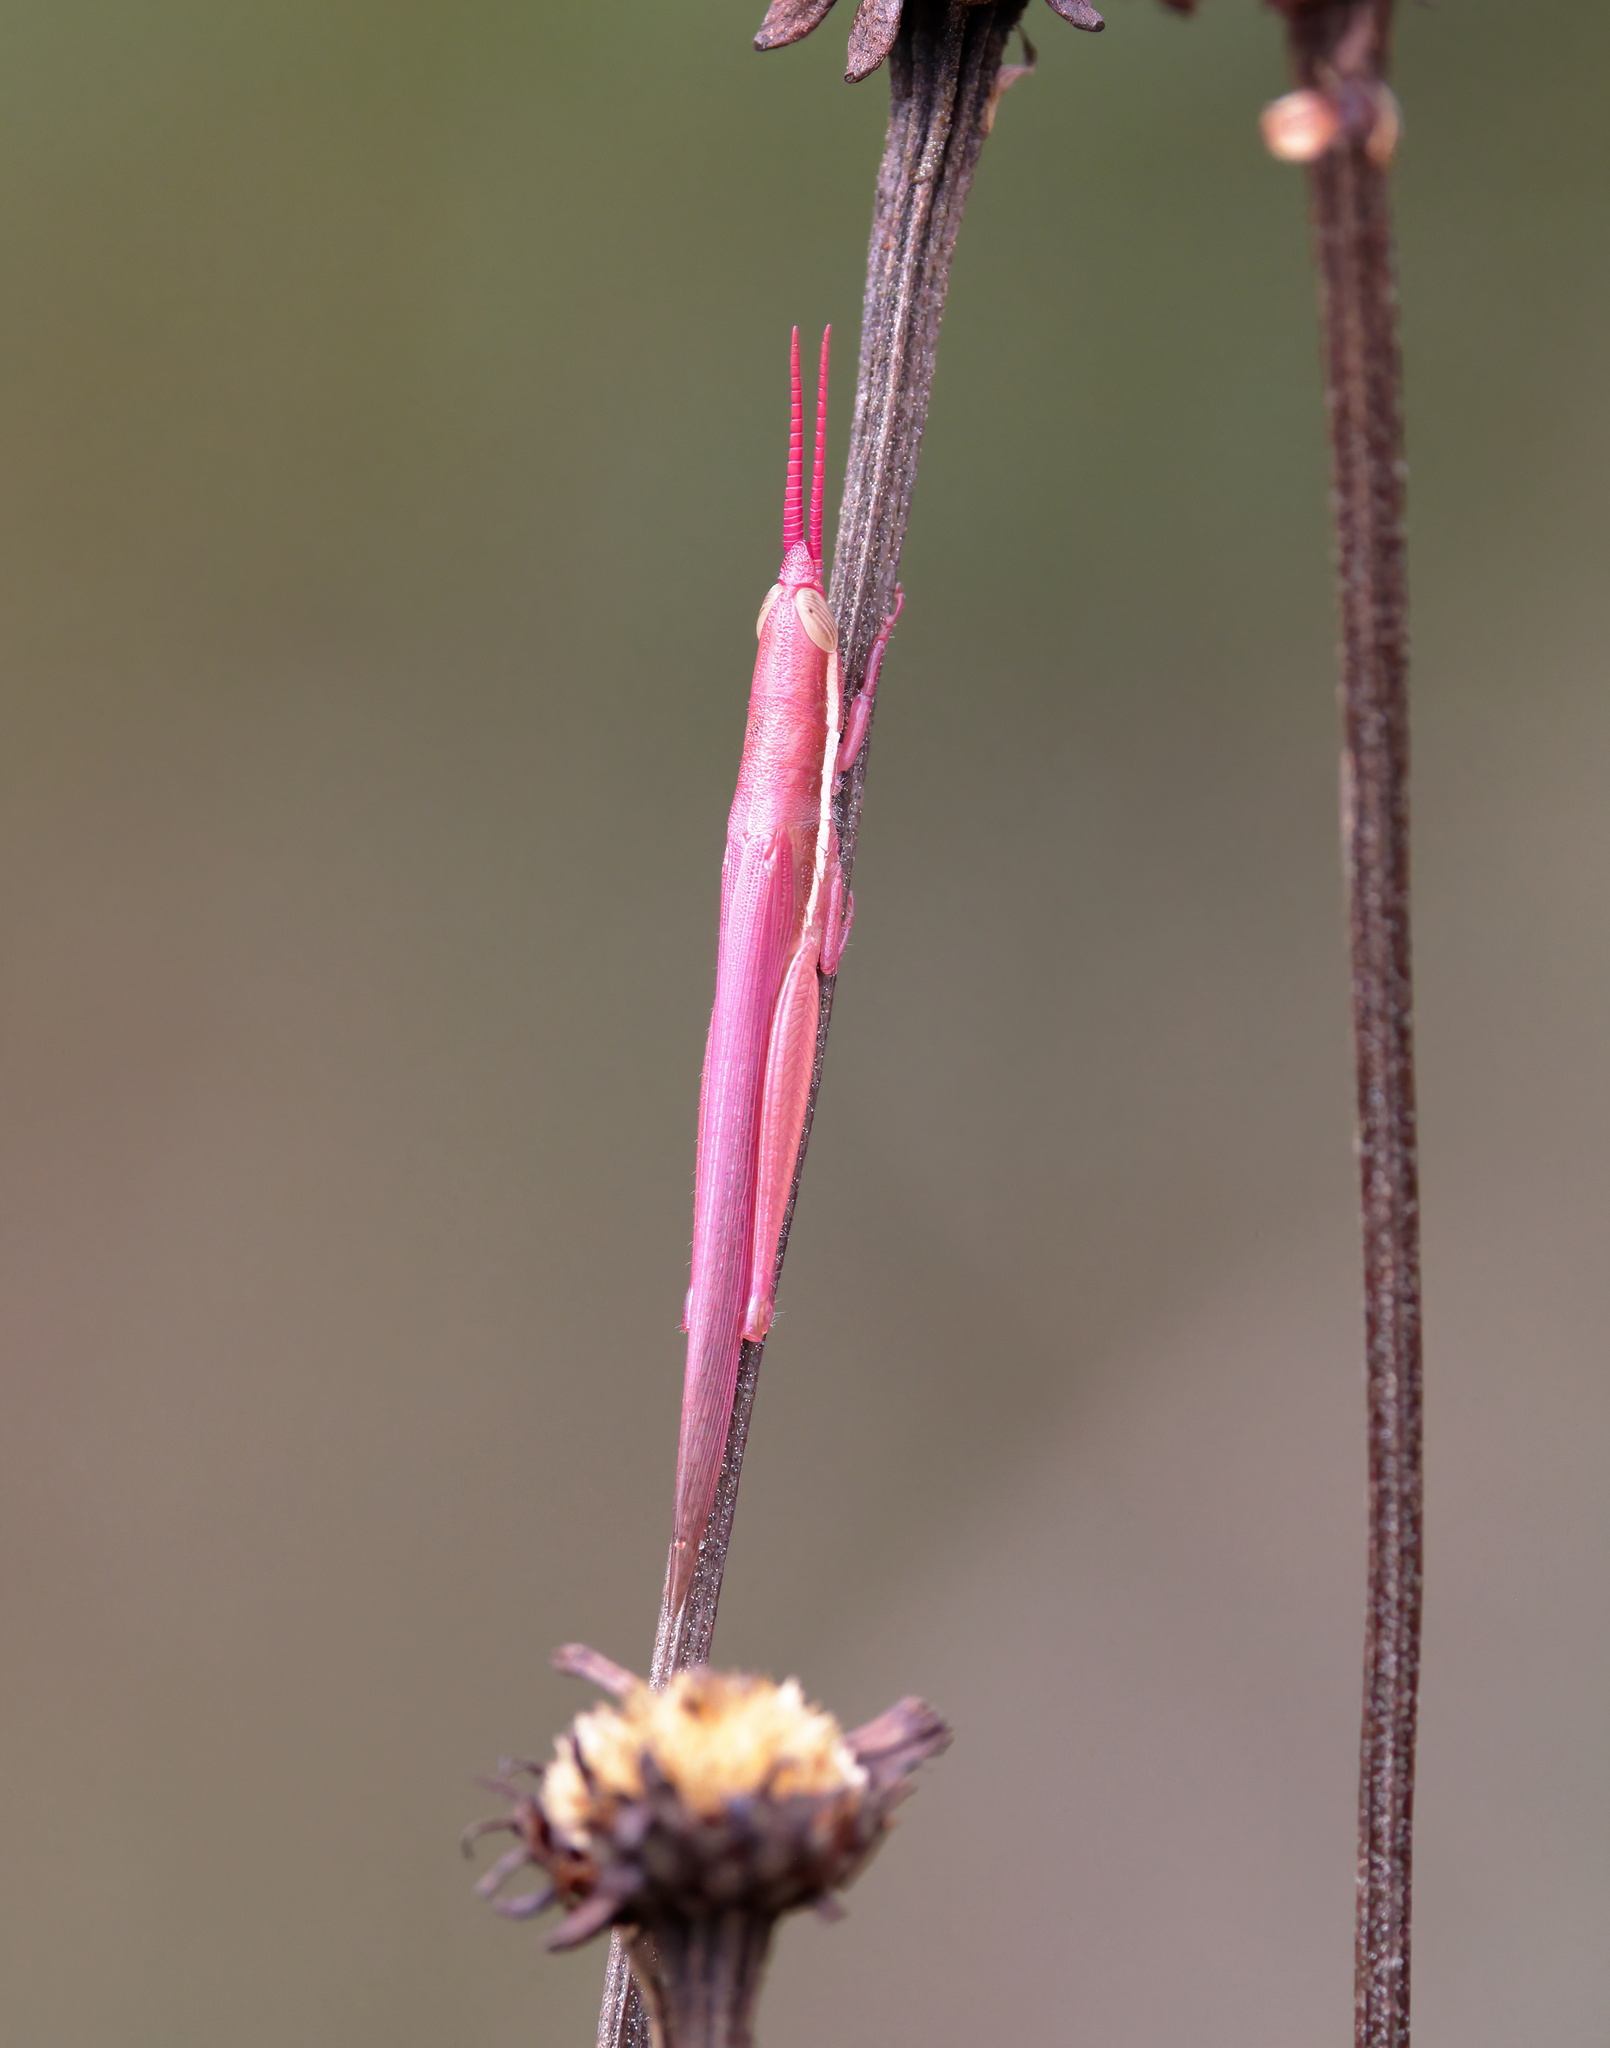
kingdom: Animalia
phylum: Arthropoda
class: Insecta
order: Orthoptera
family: Acrididae
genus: Leptysma
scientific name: Leptysma marginicollis
